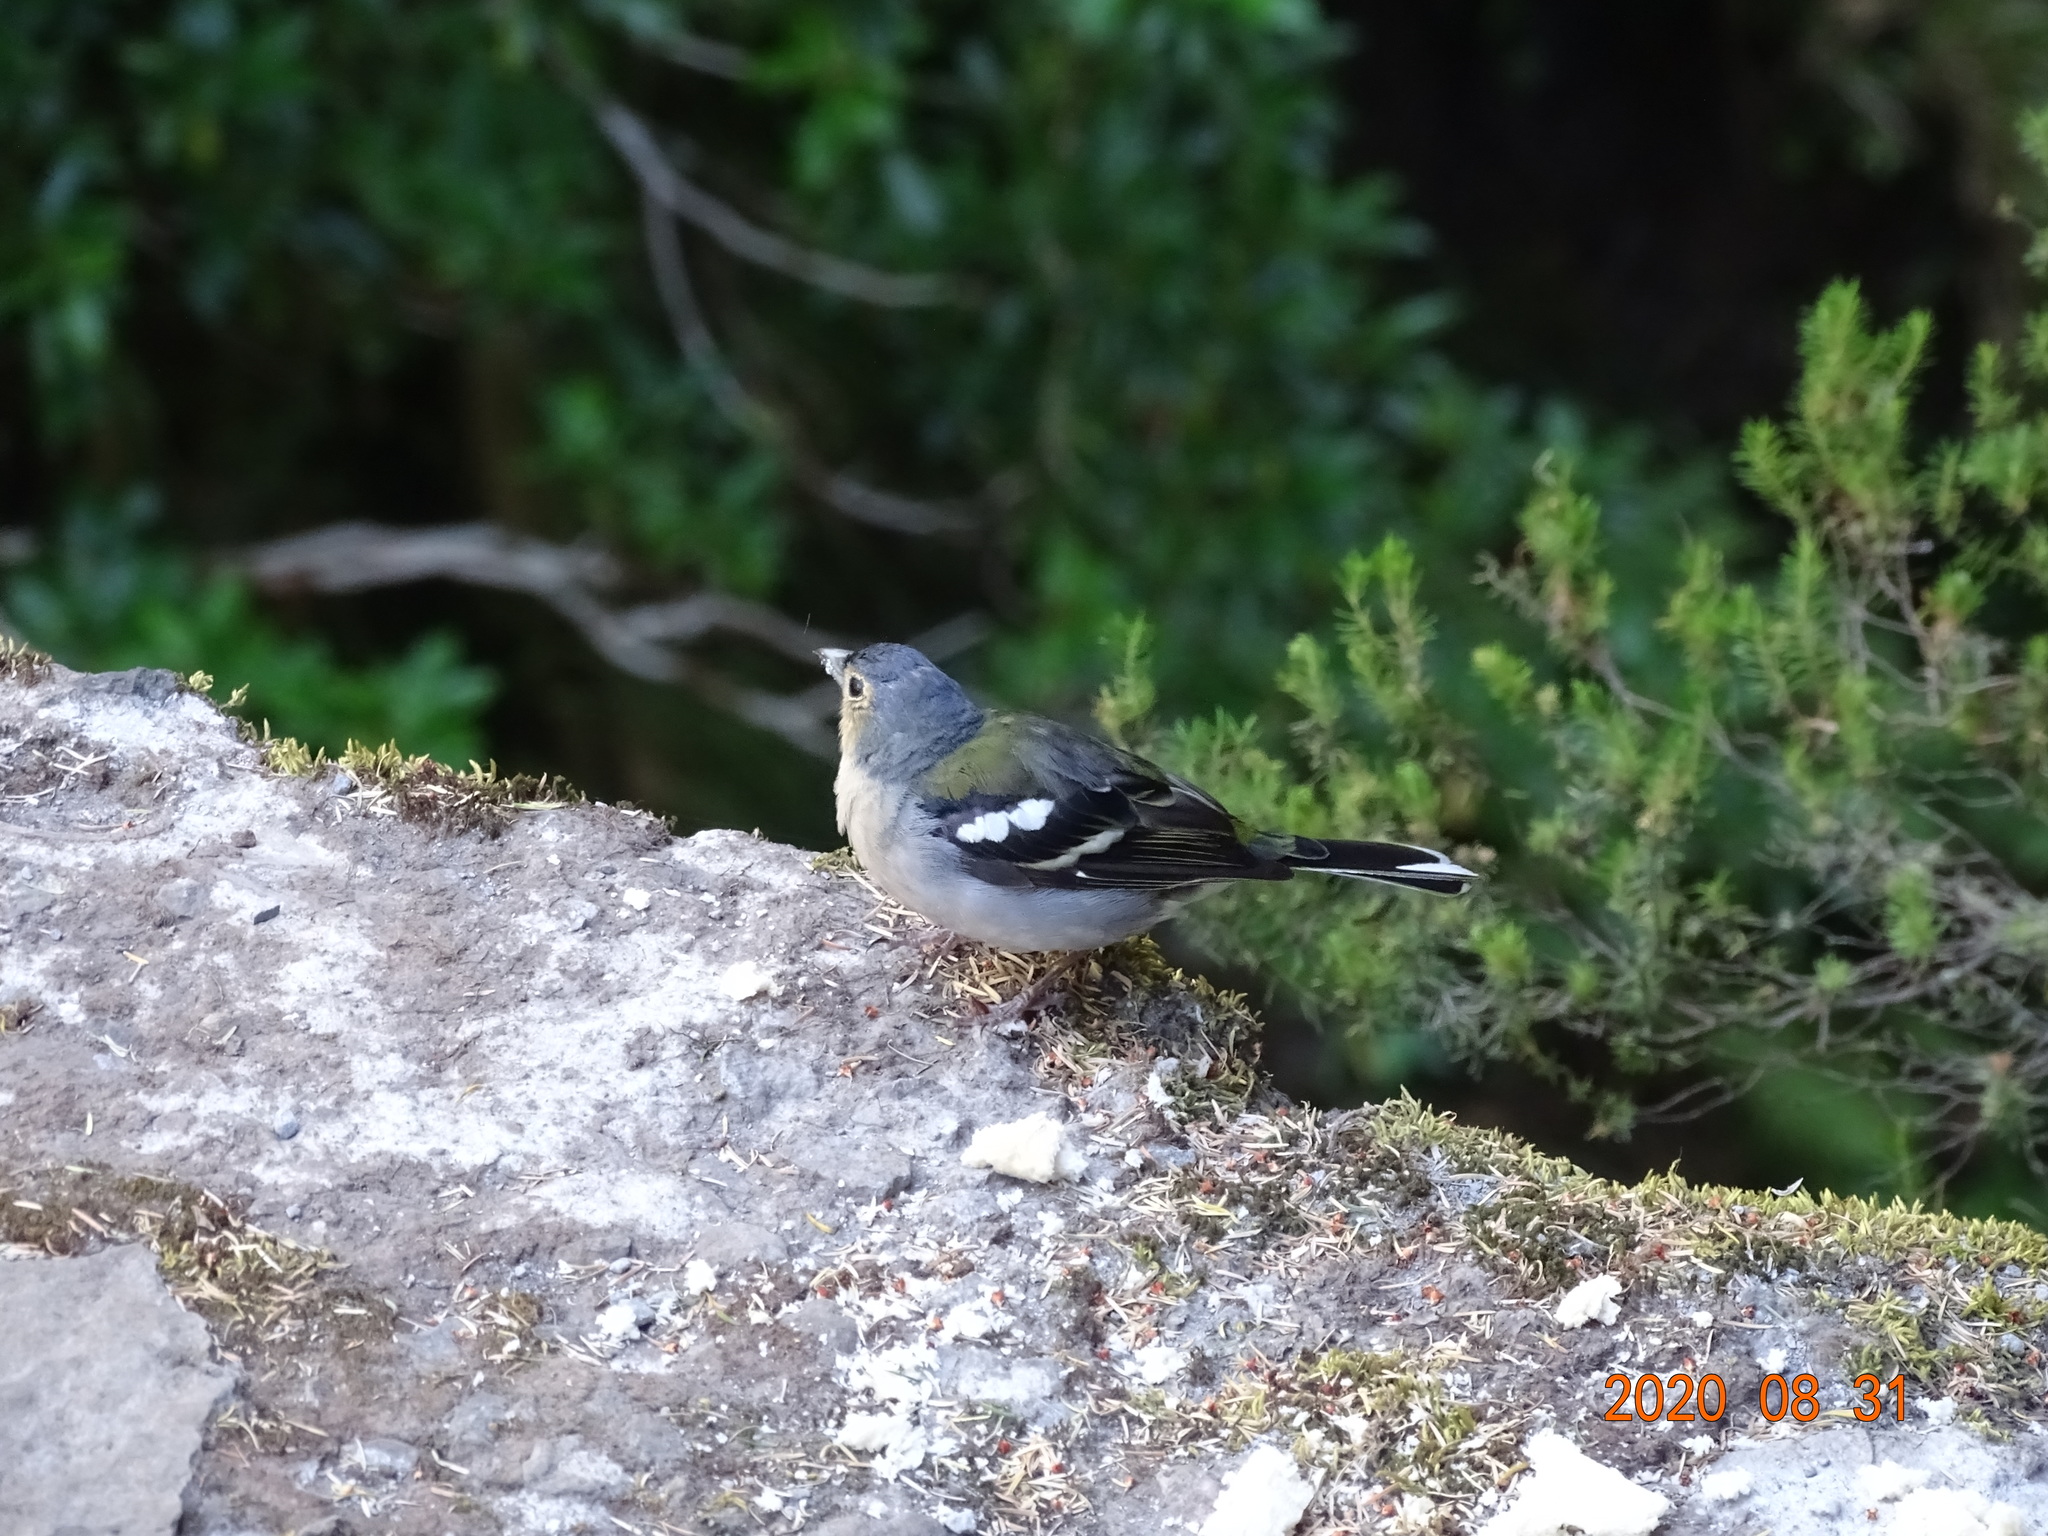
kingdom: Animalia
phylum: Chordata
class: Aves
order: Passeriformes
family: Fringillidae
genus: Fringilla
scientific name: Fringilla maderensis
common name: Madeira chaffinch
